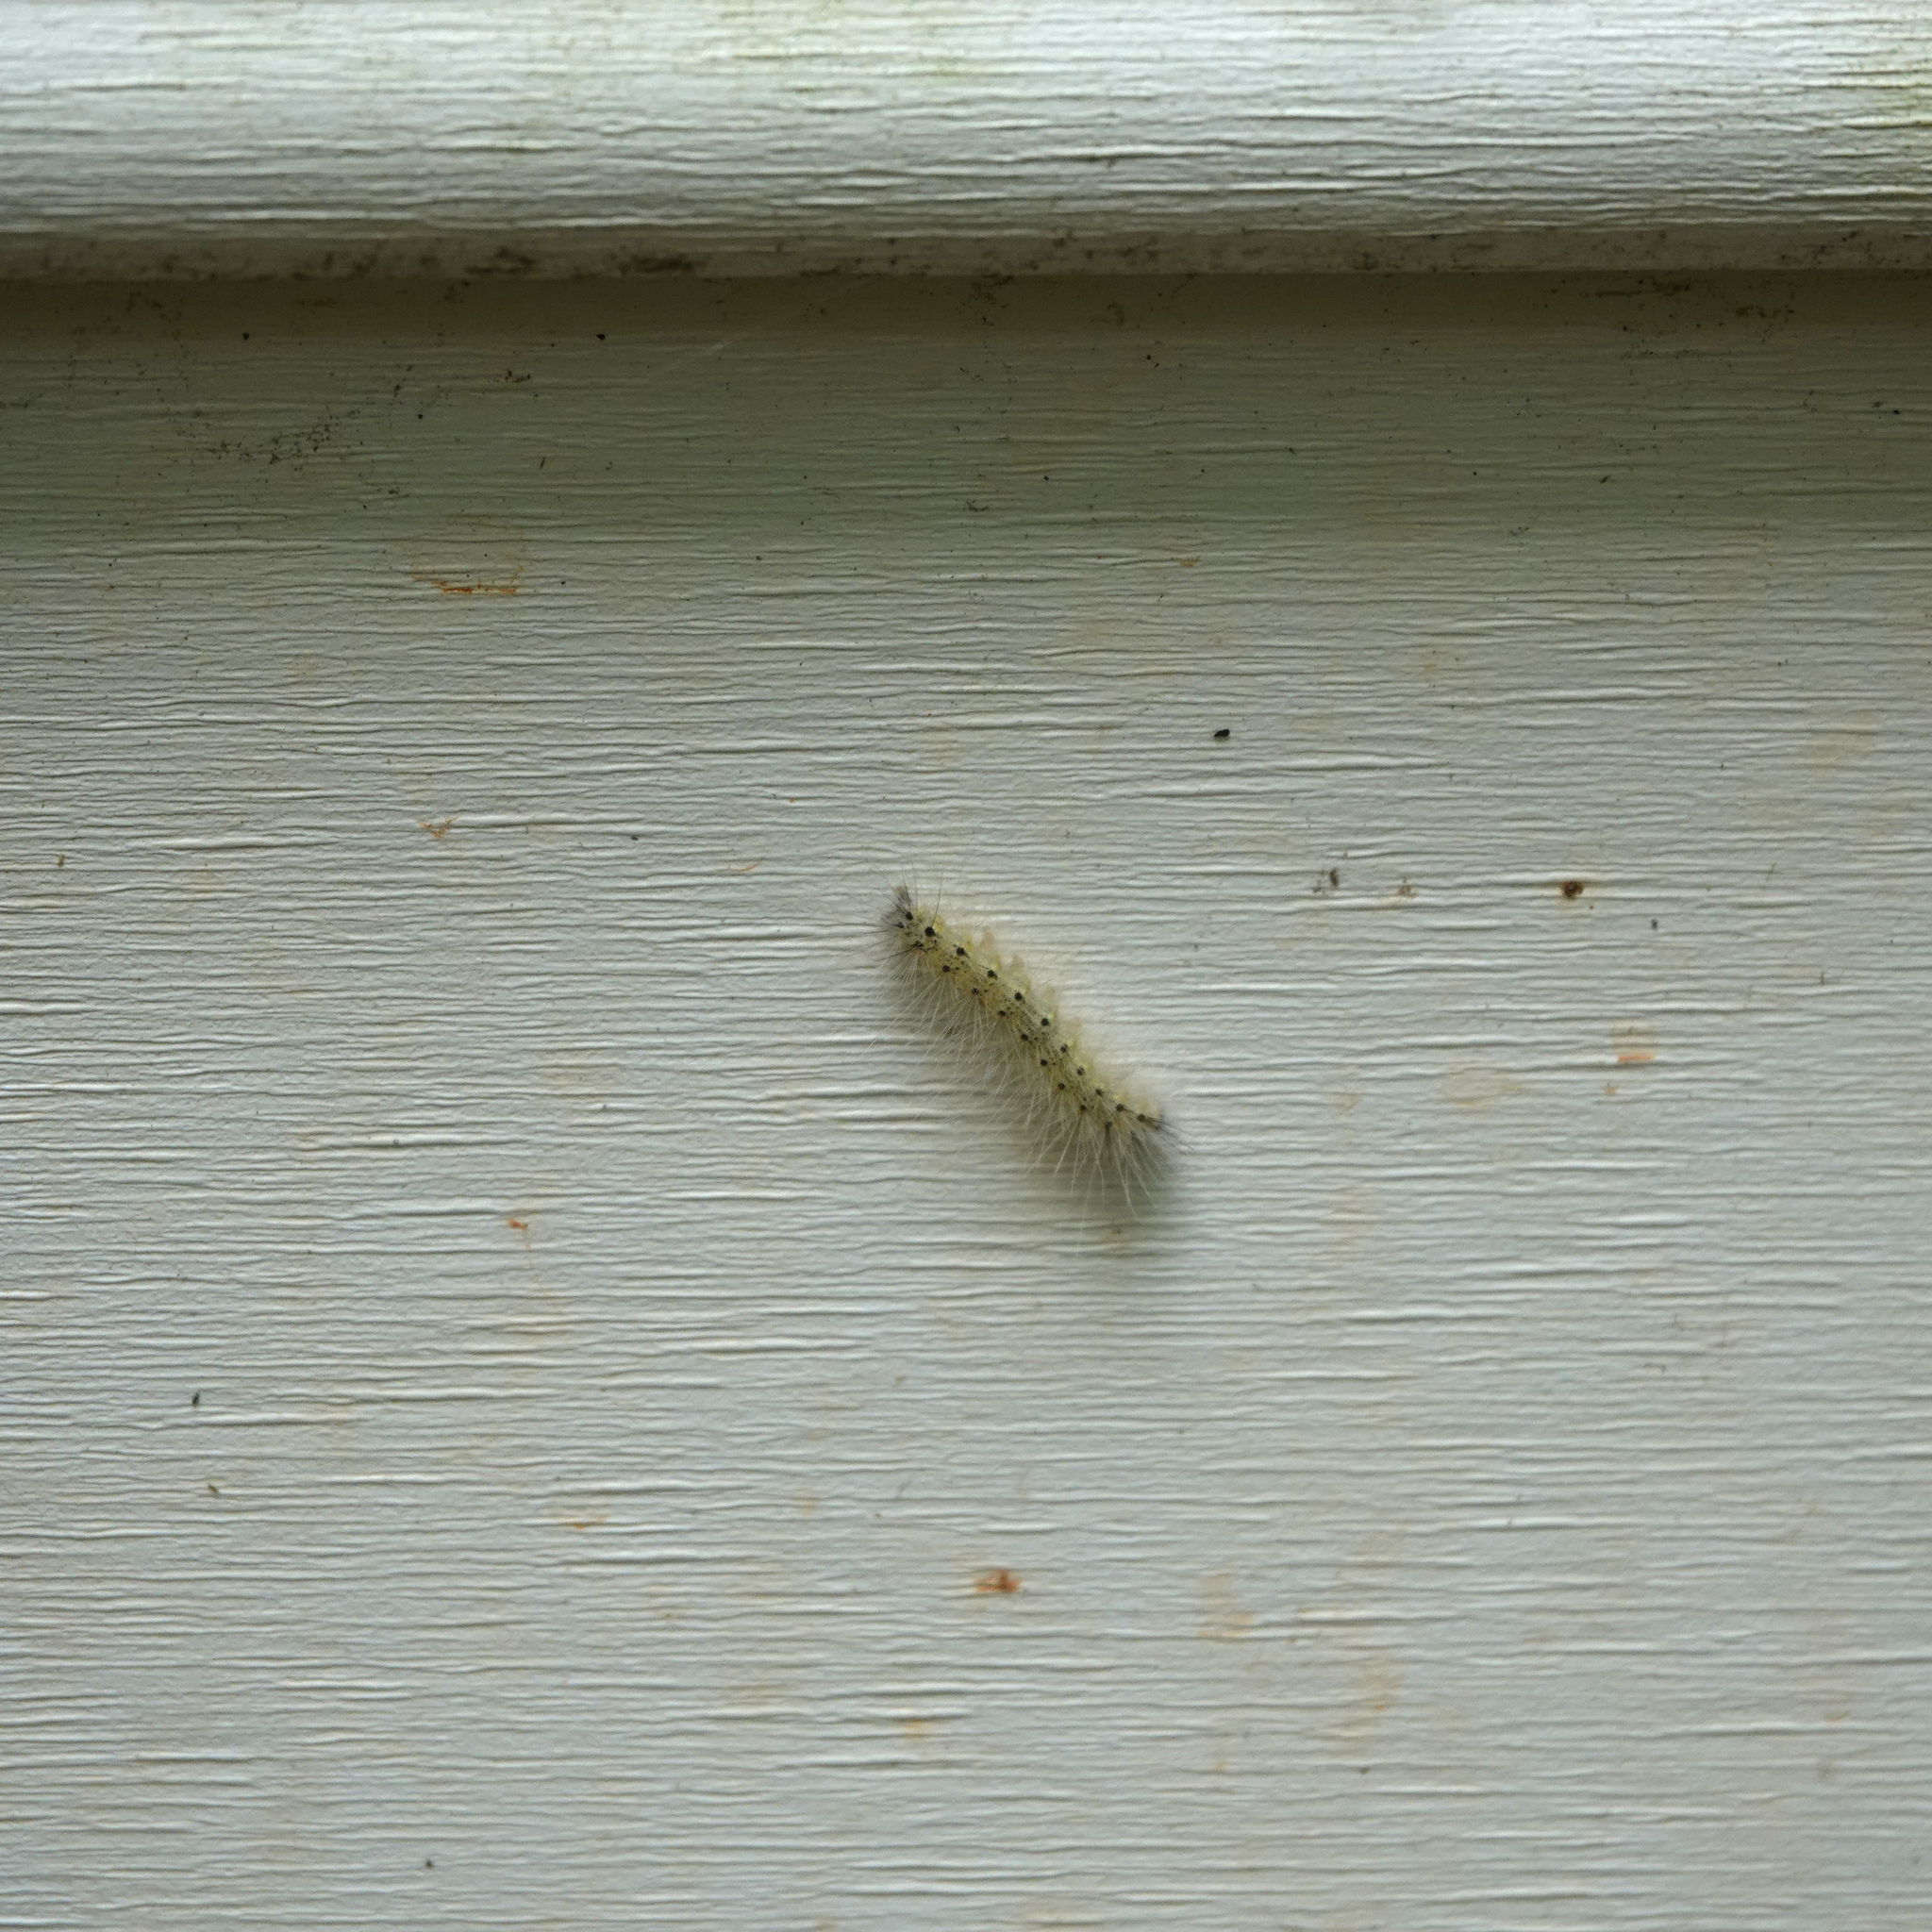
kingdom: Animalia
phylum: Arthropoda
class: Insecta
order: Lepidoptera
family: Erebidae
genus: Hyphantria
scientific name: Hyphantria cunea
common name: American white moth
